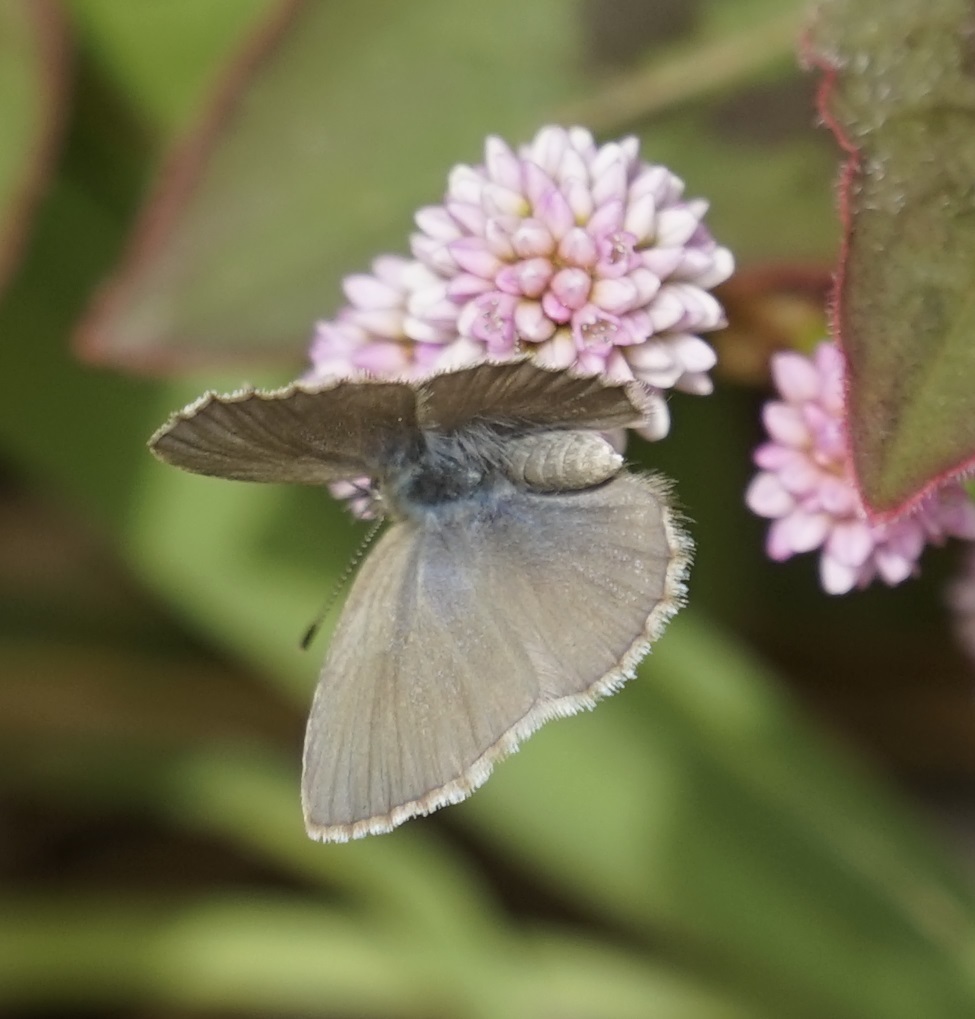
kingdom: Animalia
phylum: Arthropoda
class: Insecta
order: Lepidoptera
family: Lycaenidae
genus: Zizina
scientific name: Zizina labradus
